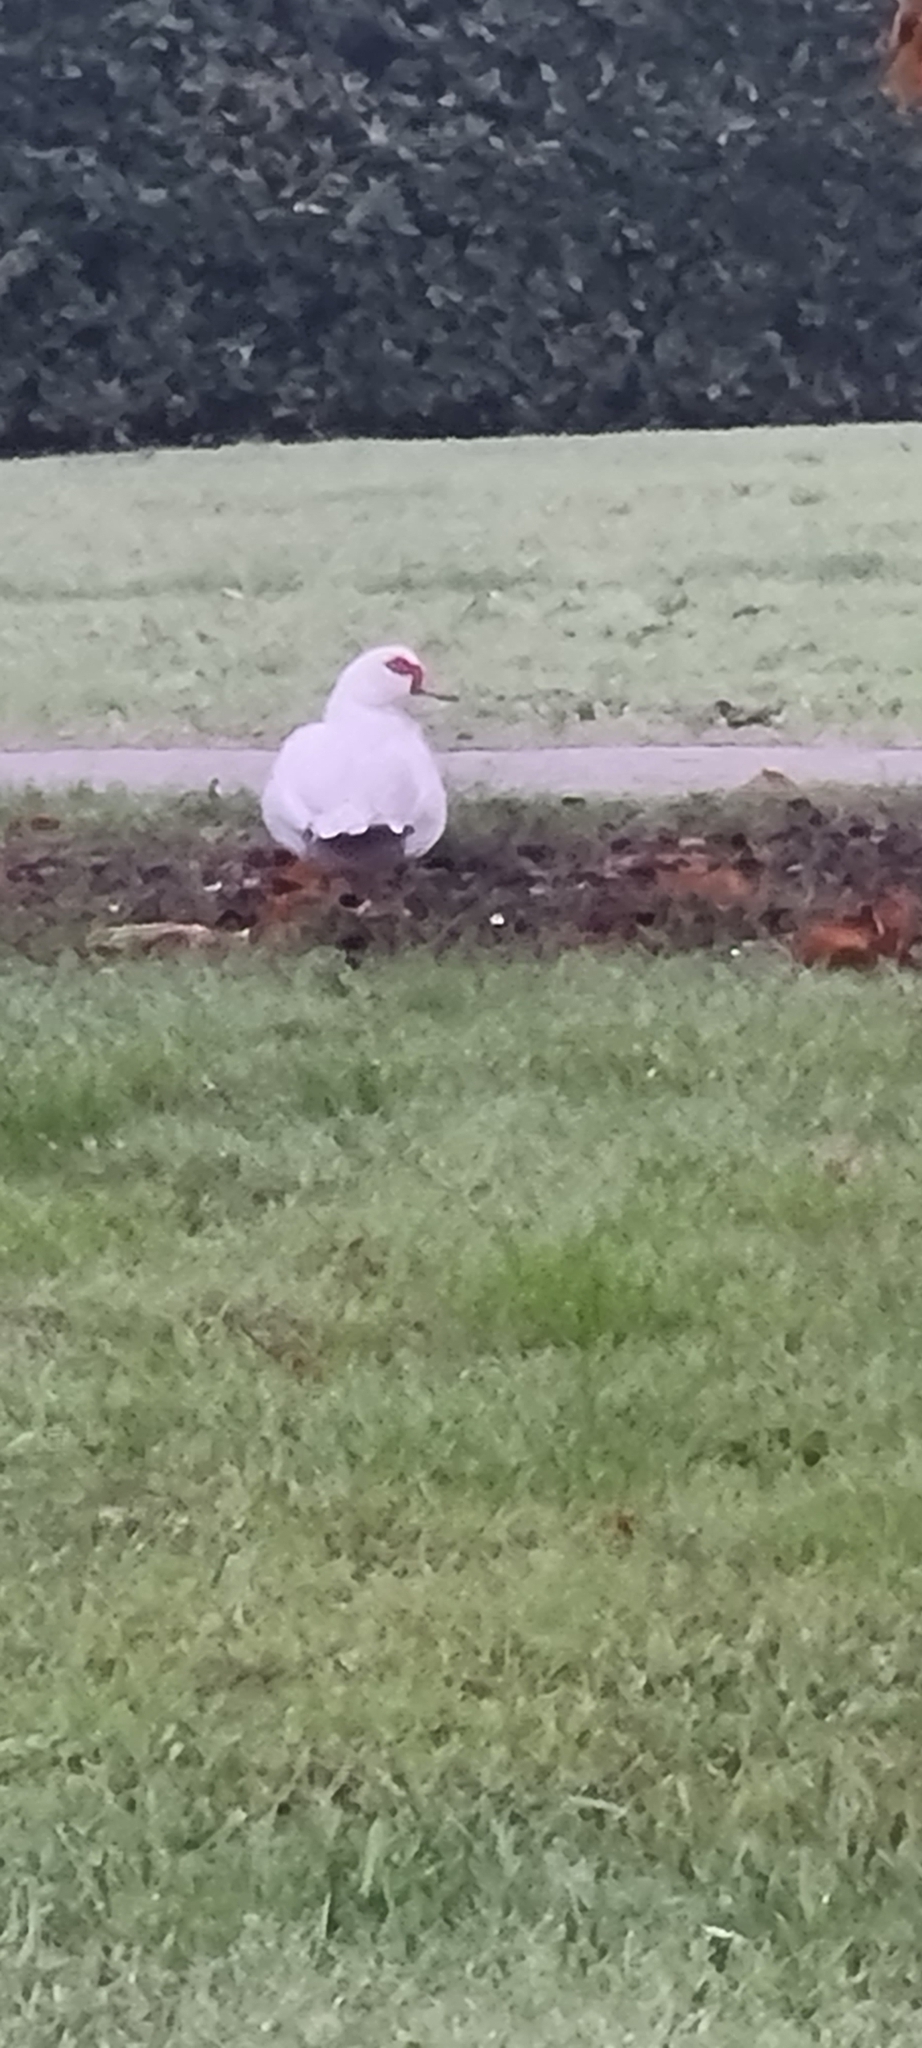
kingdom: Animalia
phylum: Chordata
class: Aves
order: Anseriformes
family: Anatidae
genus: Cairina
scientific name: Cairina moschata
